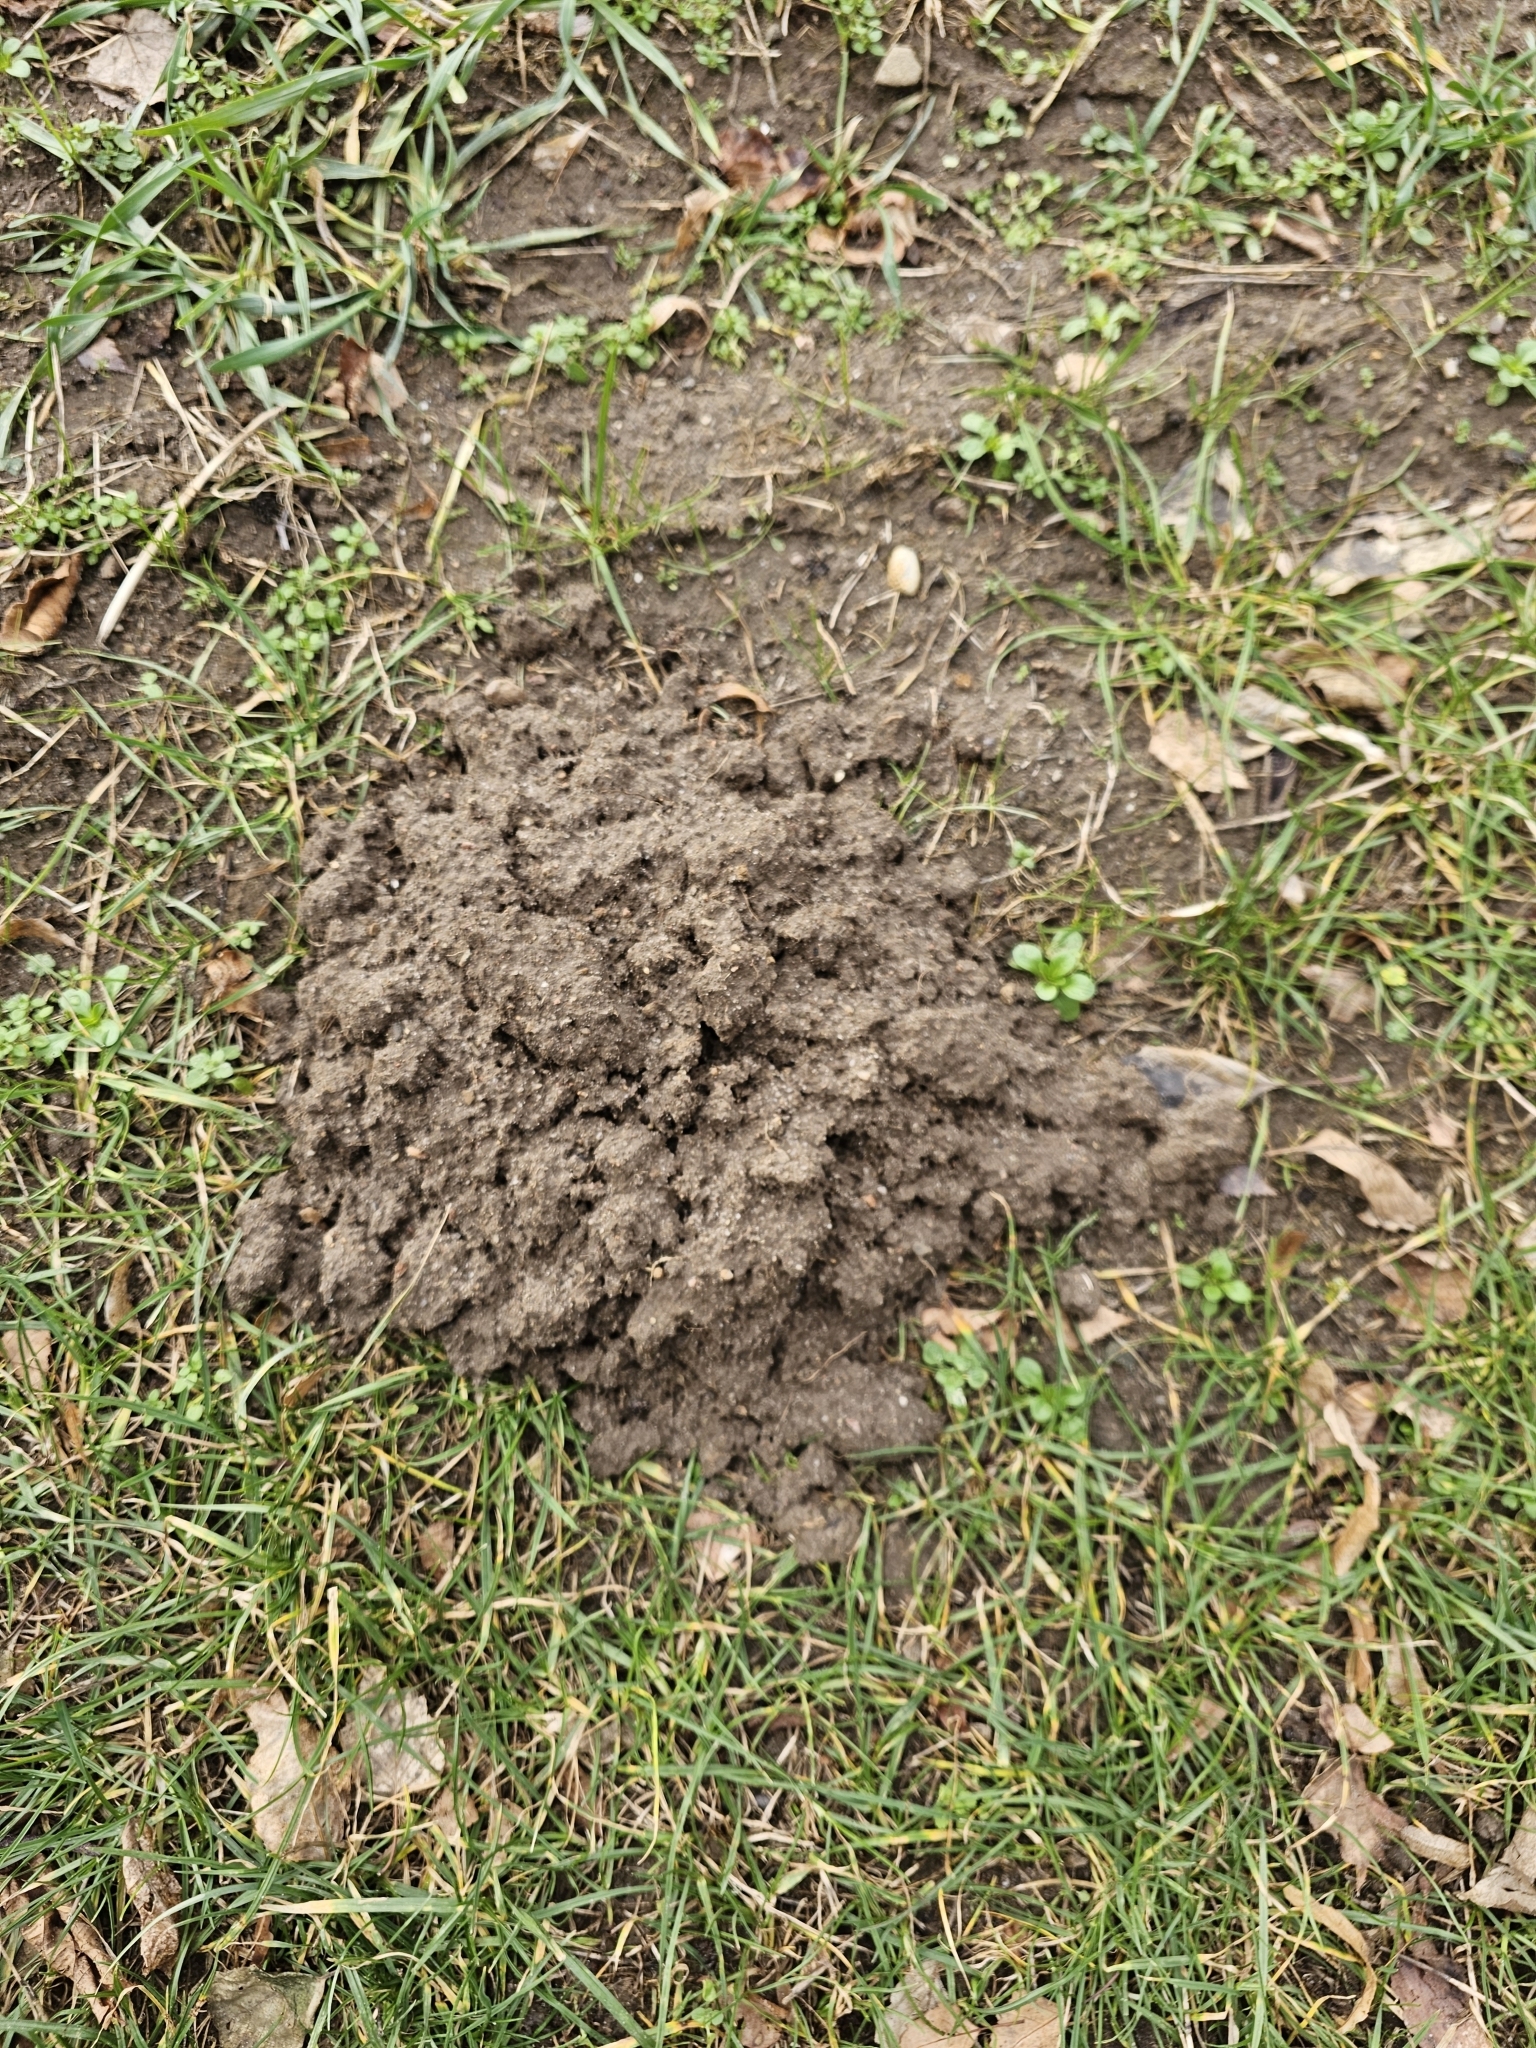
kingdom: Animalia
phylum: Chordata
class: Mammalia
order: Soricomorpha
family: Talpidae
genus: Talpa
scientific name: Talpa europaea
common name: European mole
